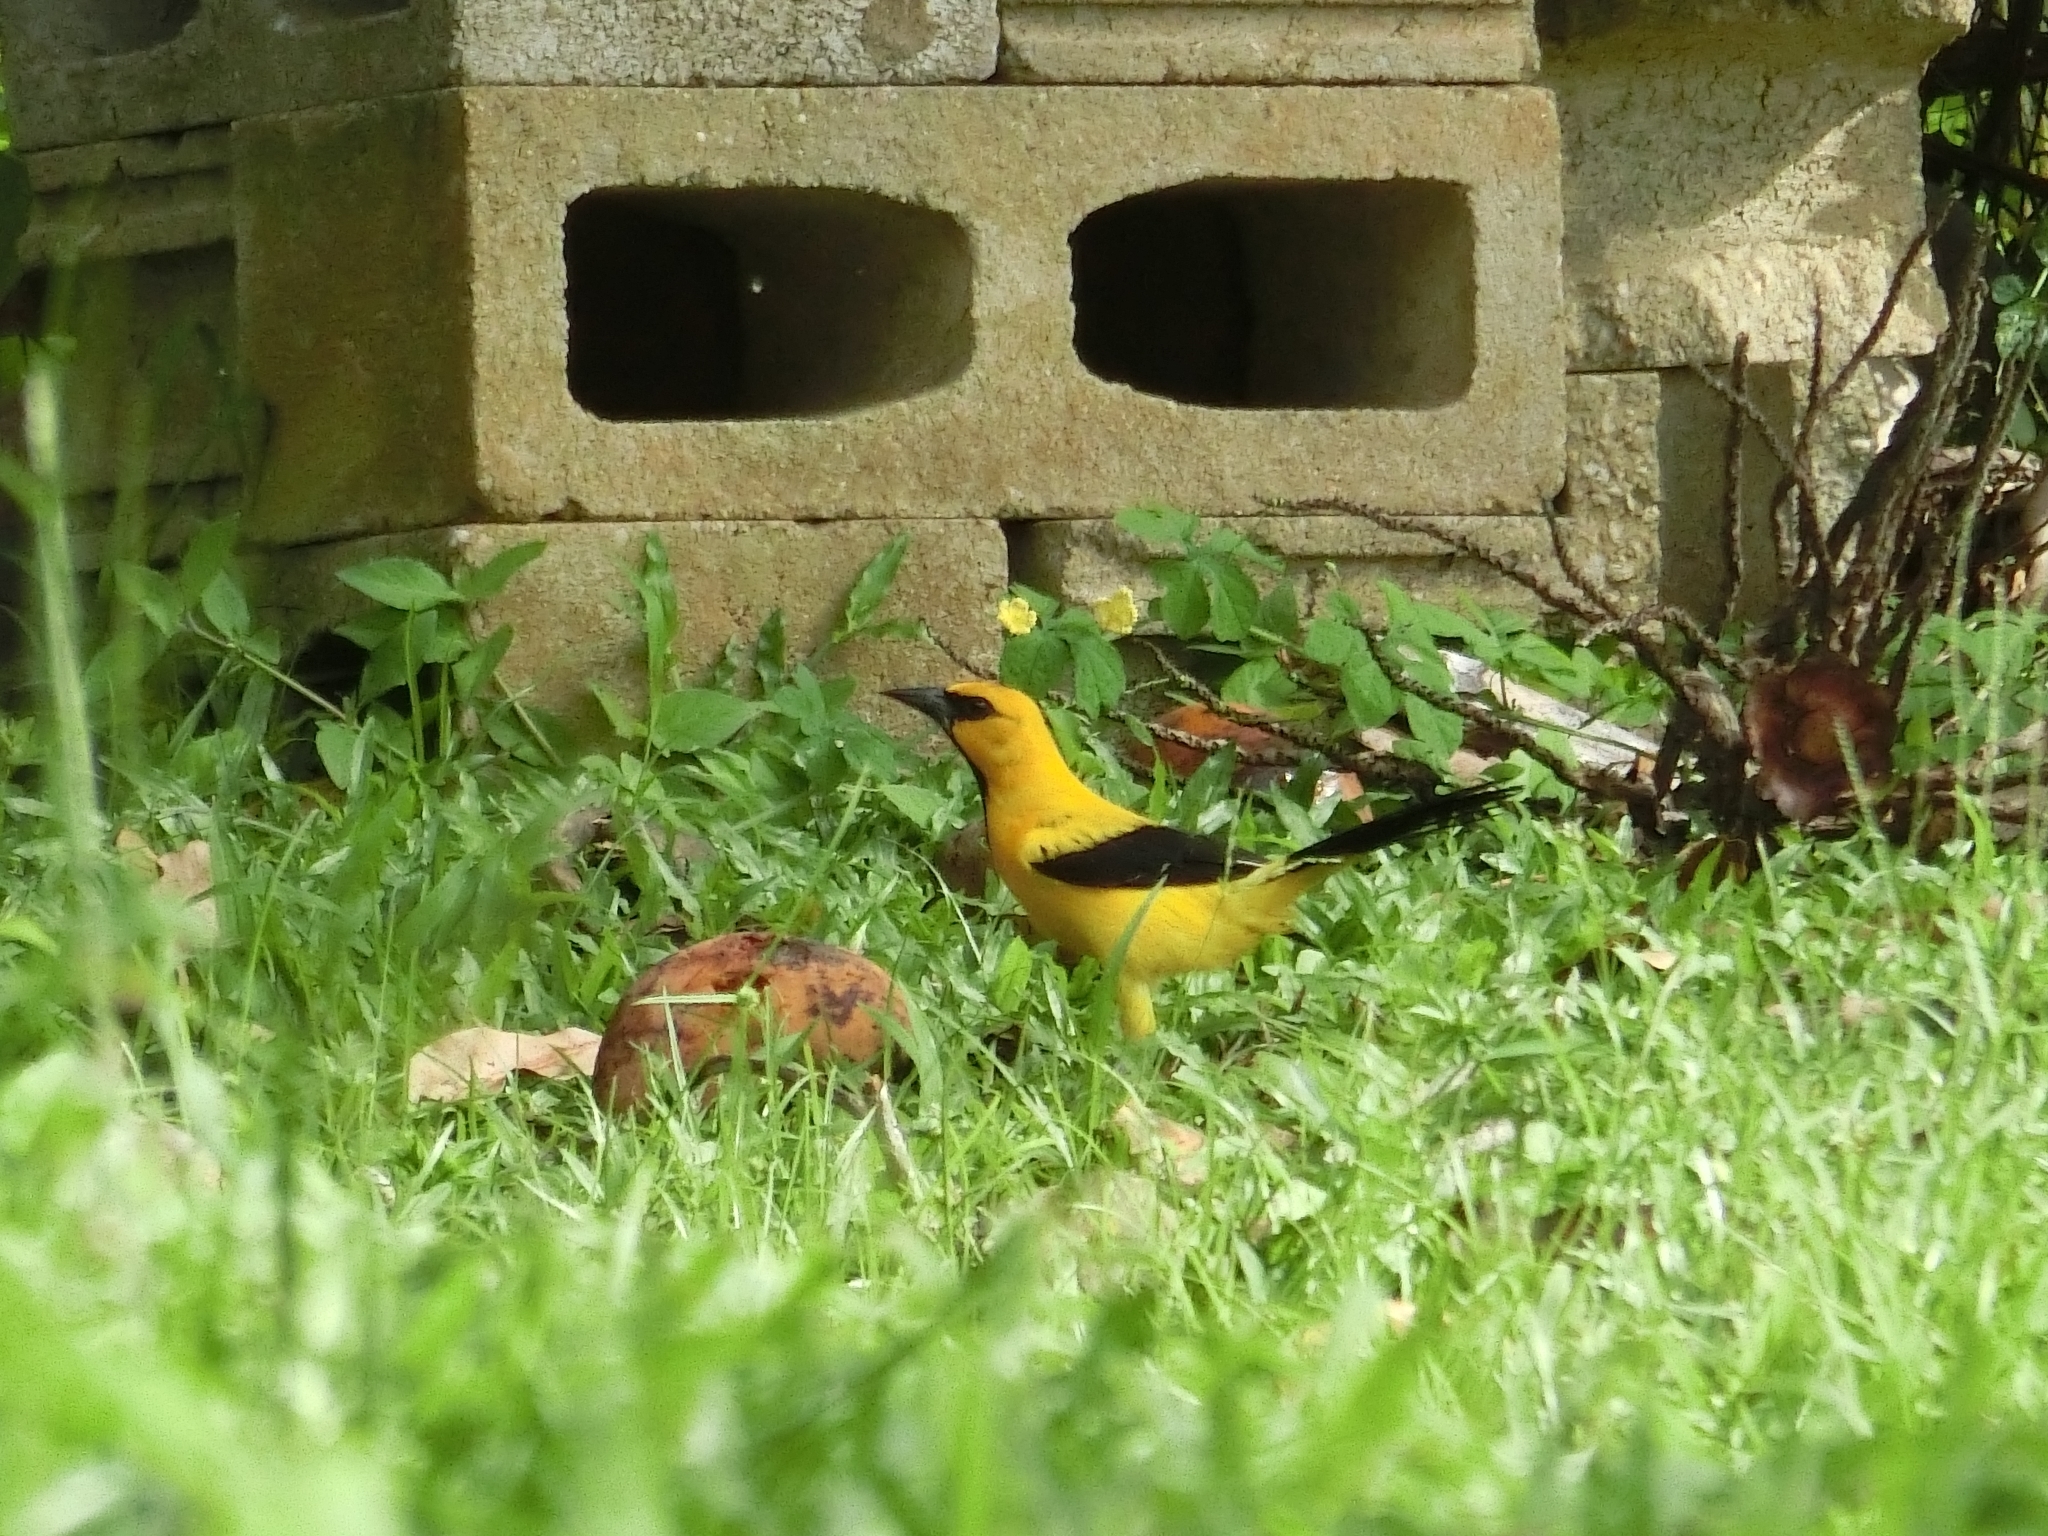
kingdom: Animalia
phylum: Chordata
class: Aves
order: Passeriformes
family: Icteridae
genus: Icterus
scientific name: Icterus nigrogularis
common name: Yellow oriole
